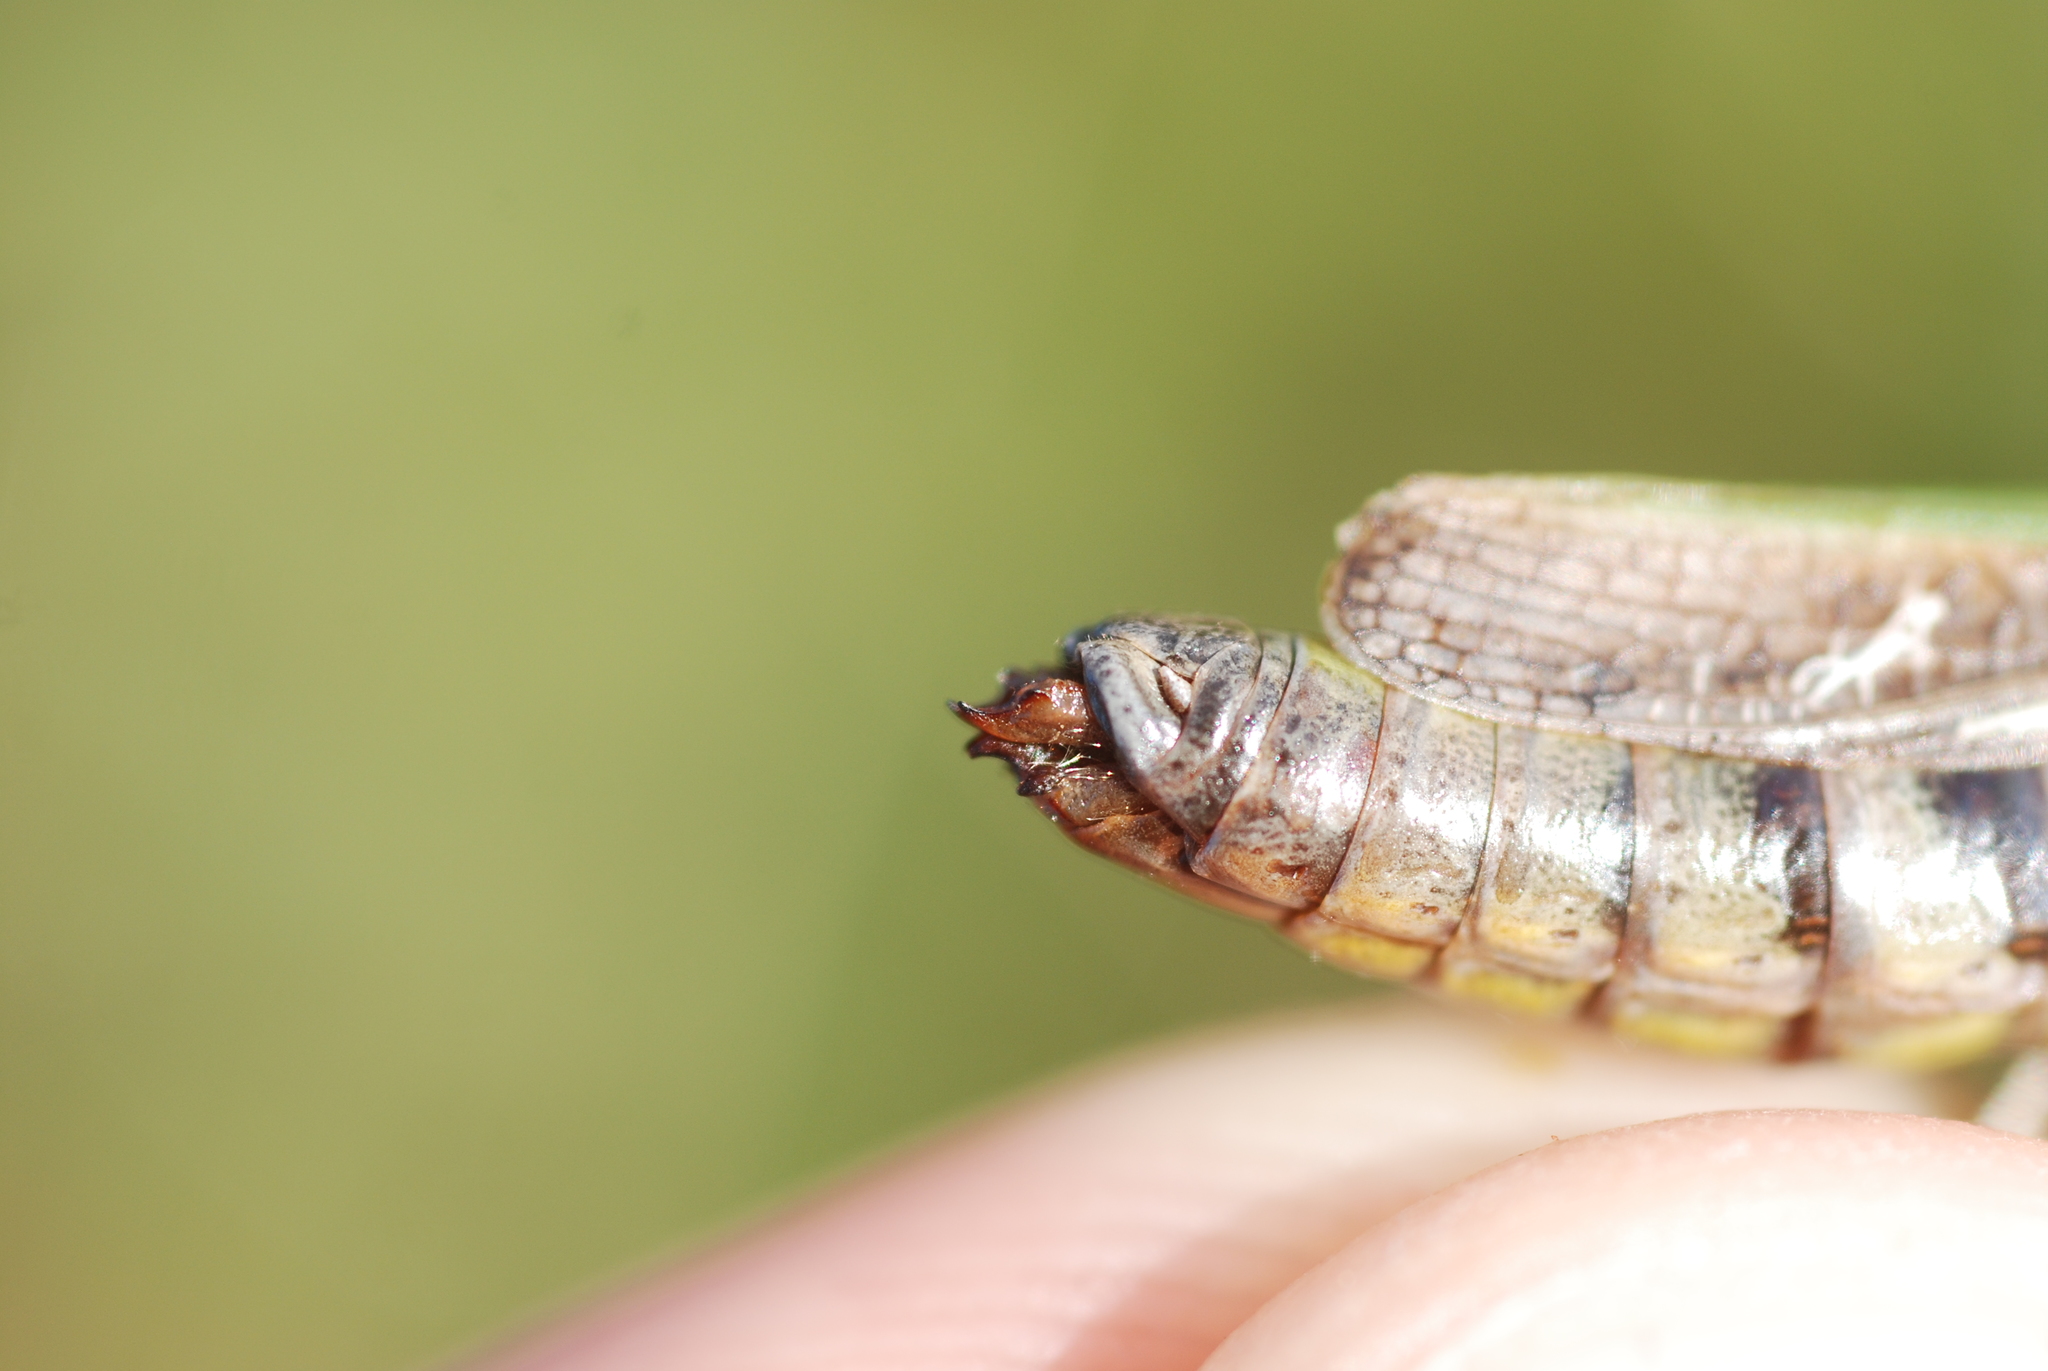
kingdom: Animalia
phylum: Arthropoda
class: Insecta
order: Orthoptera
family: Acrididae
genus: Stenobothrus
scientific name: Stenobothrus lineatus
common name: Stripe-winged grasshopper
